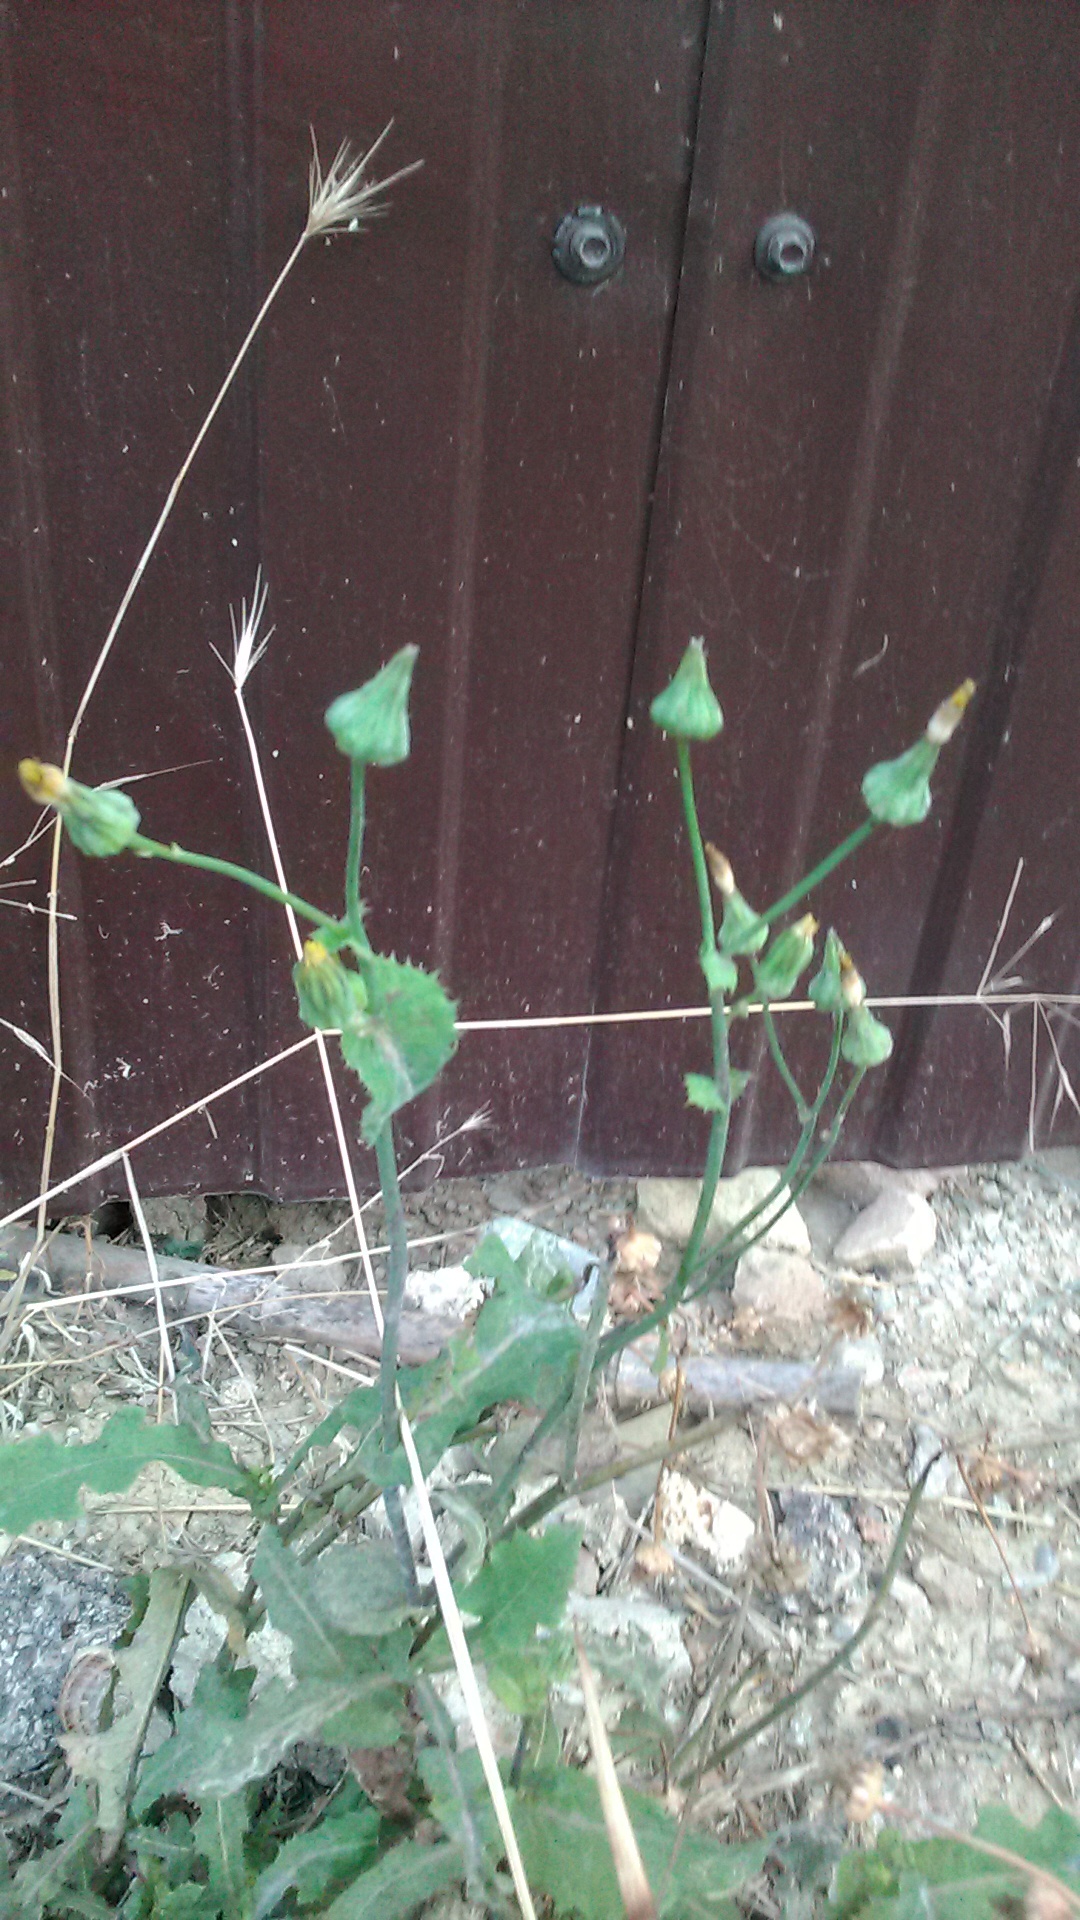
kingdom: Plantae
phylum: Tracheophyta
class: Magnoliopsida
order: Asterales
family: Asteraceae
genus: Sonchus
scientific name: Sonchus oleraceus
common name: Common sowthistle
